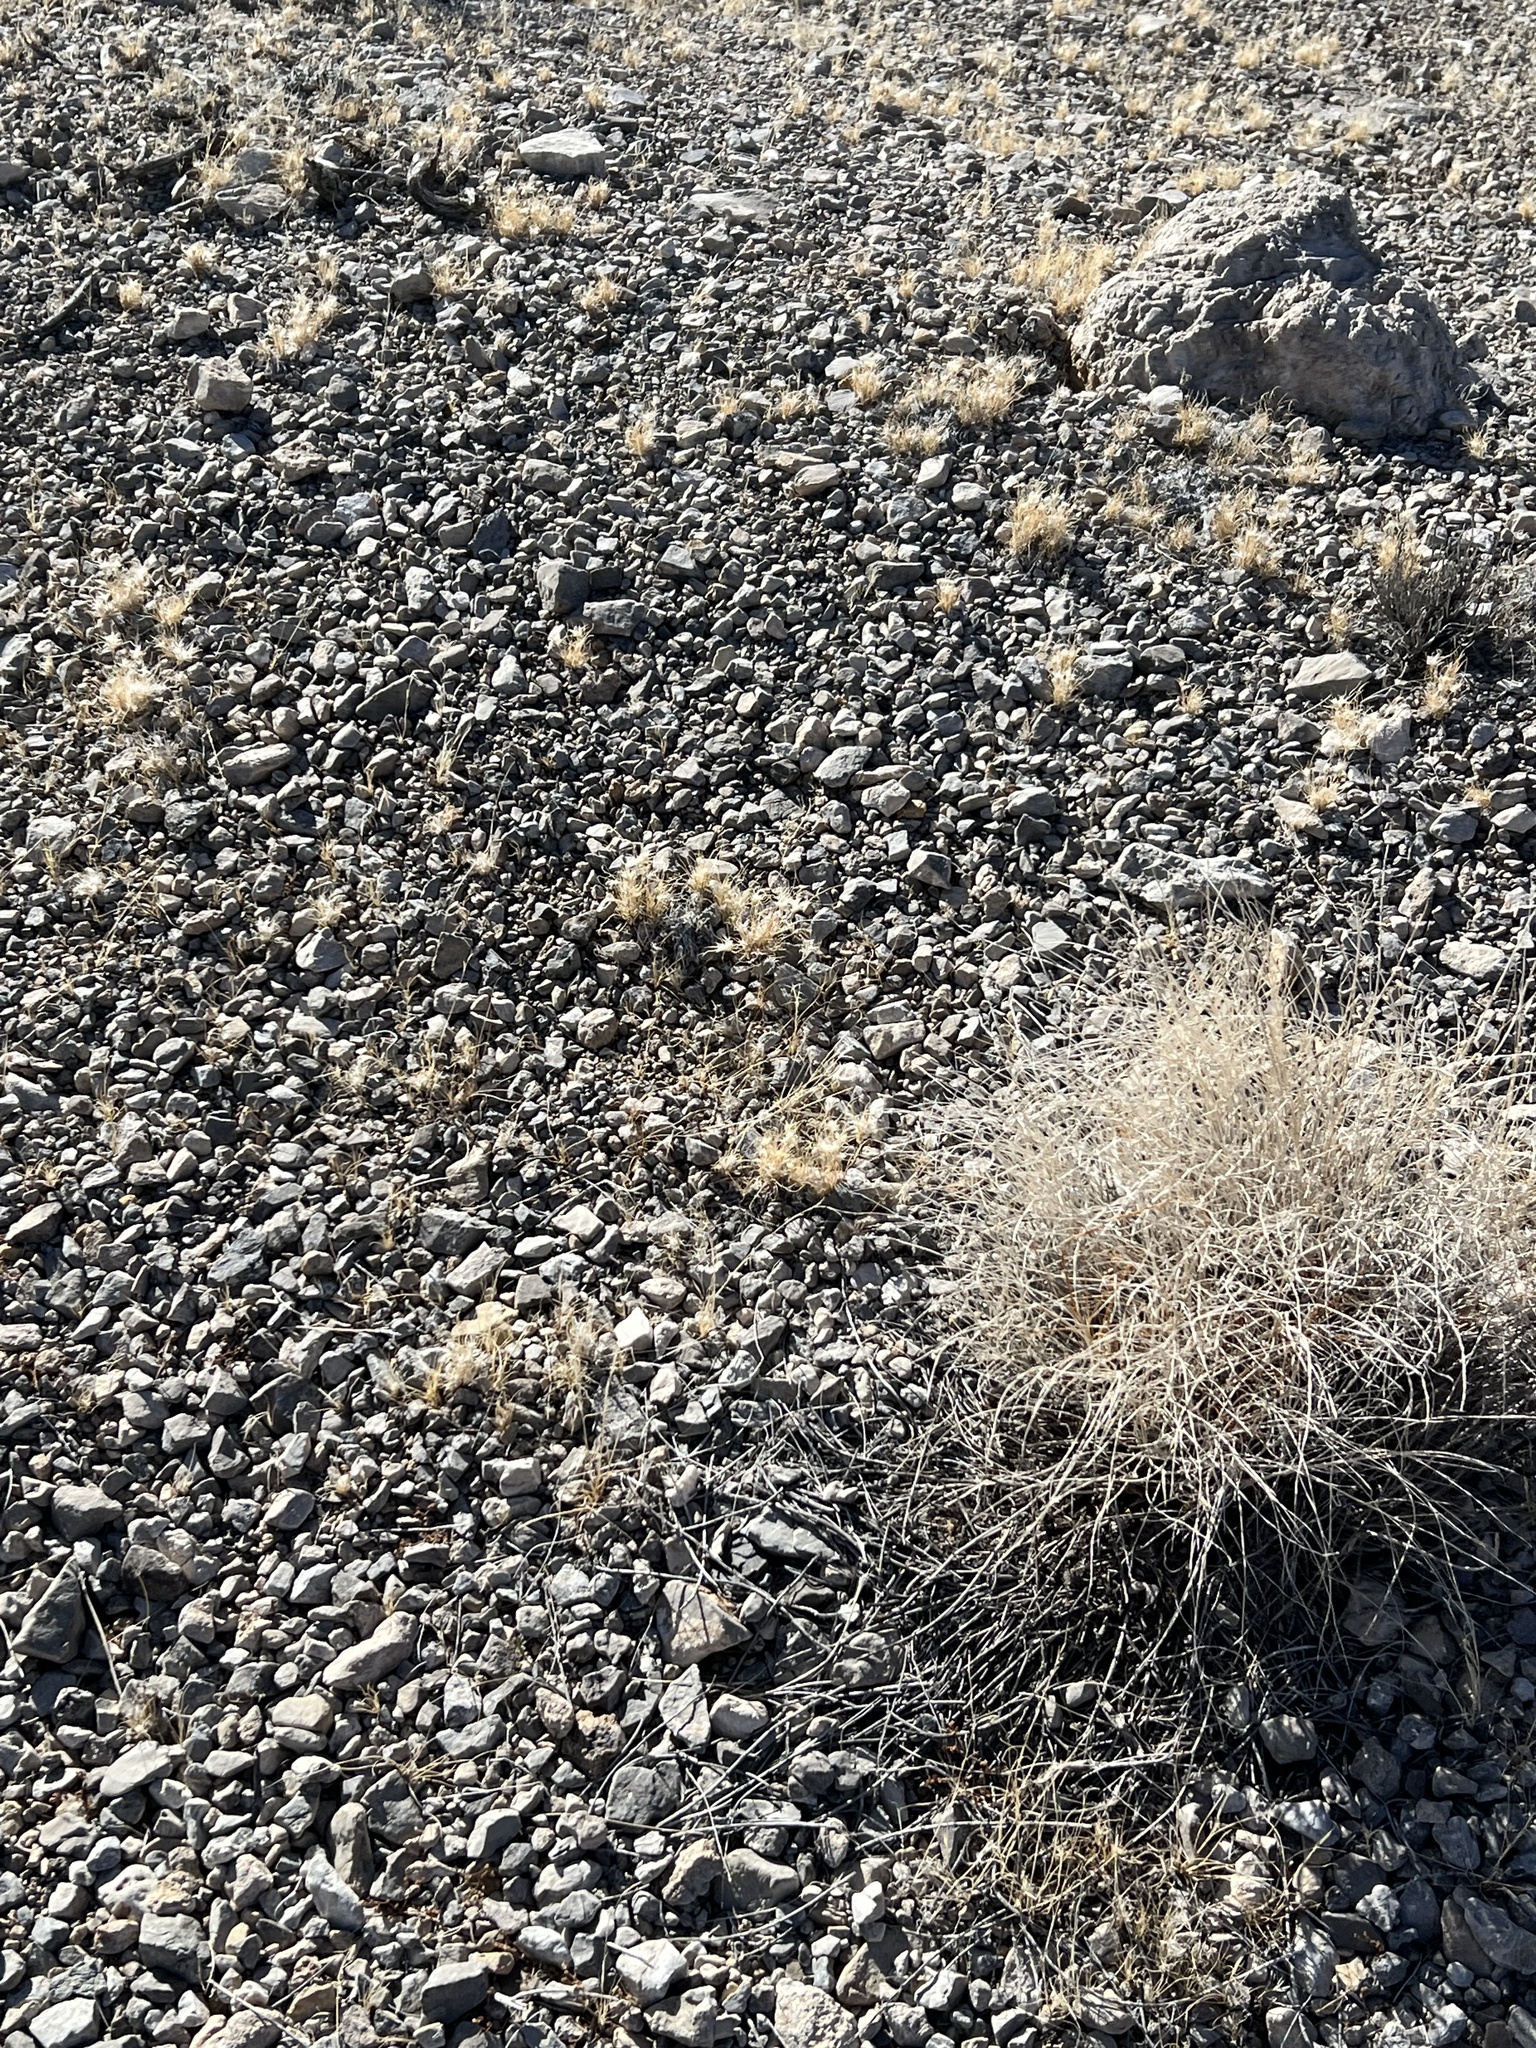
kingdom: Plantae
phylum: Tracheophyta
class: Liliopsida
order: Poales
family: Poaceae
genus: Dasyochloa
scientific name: Dasyochloa pulchella
